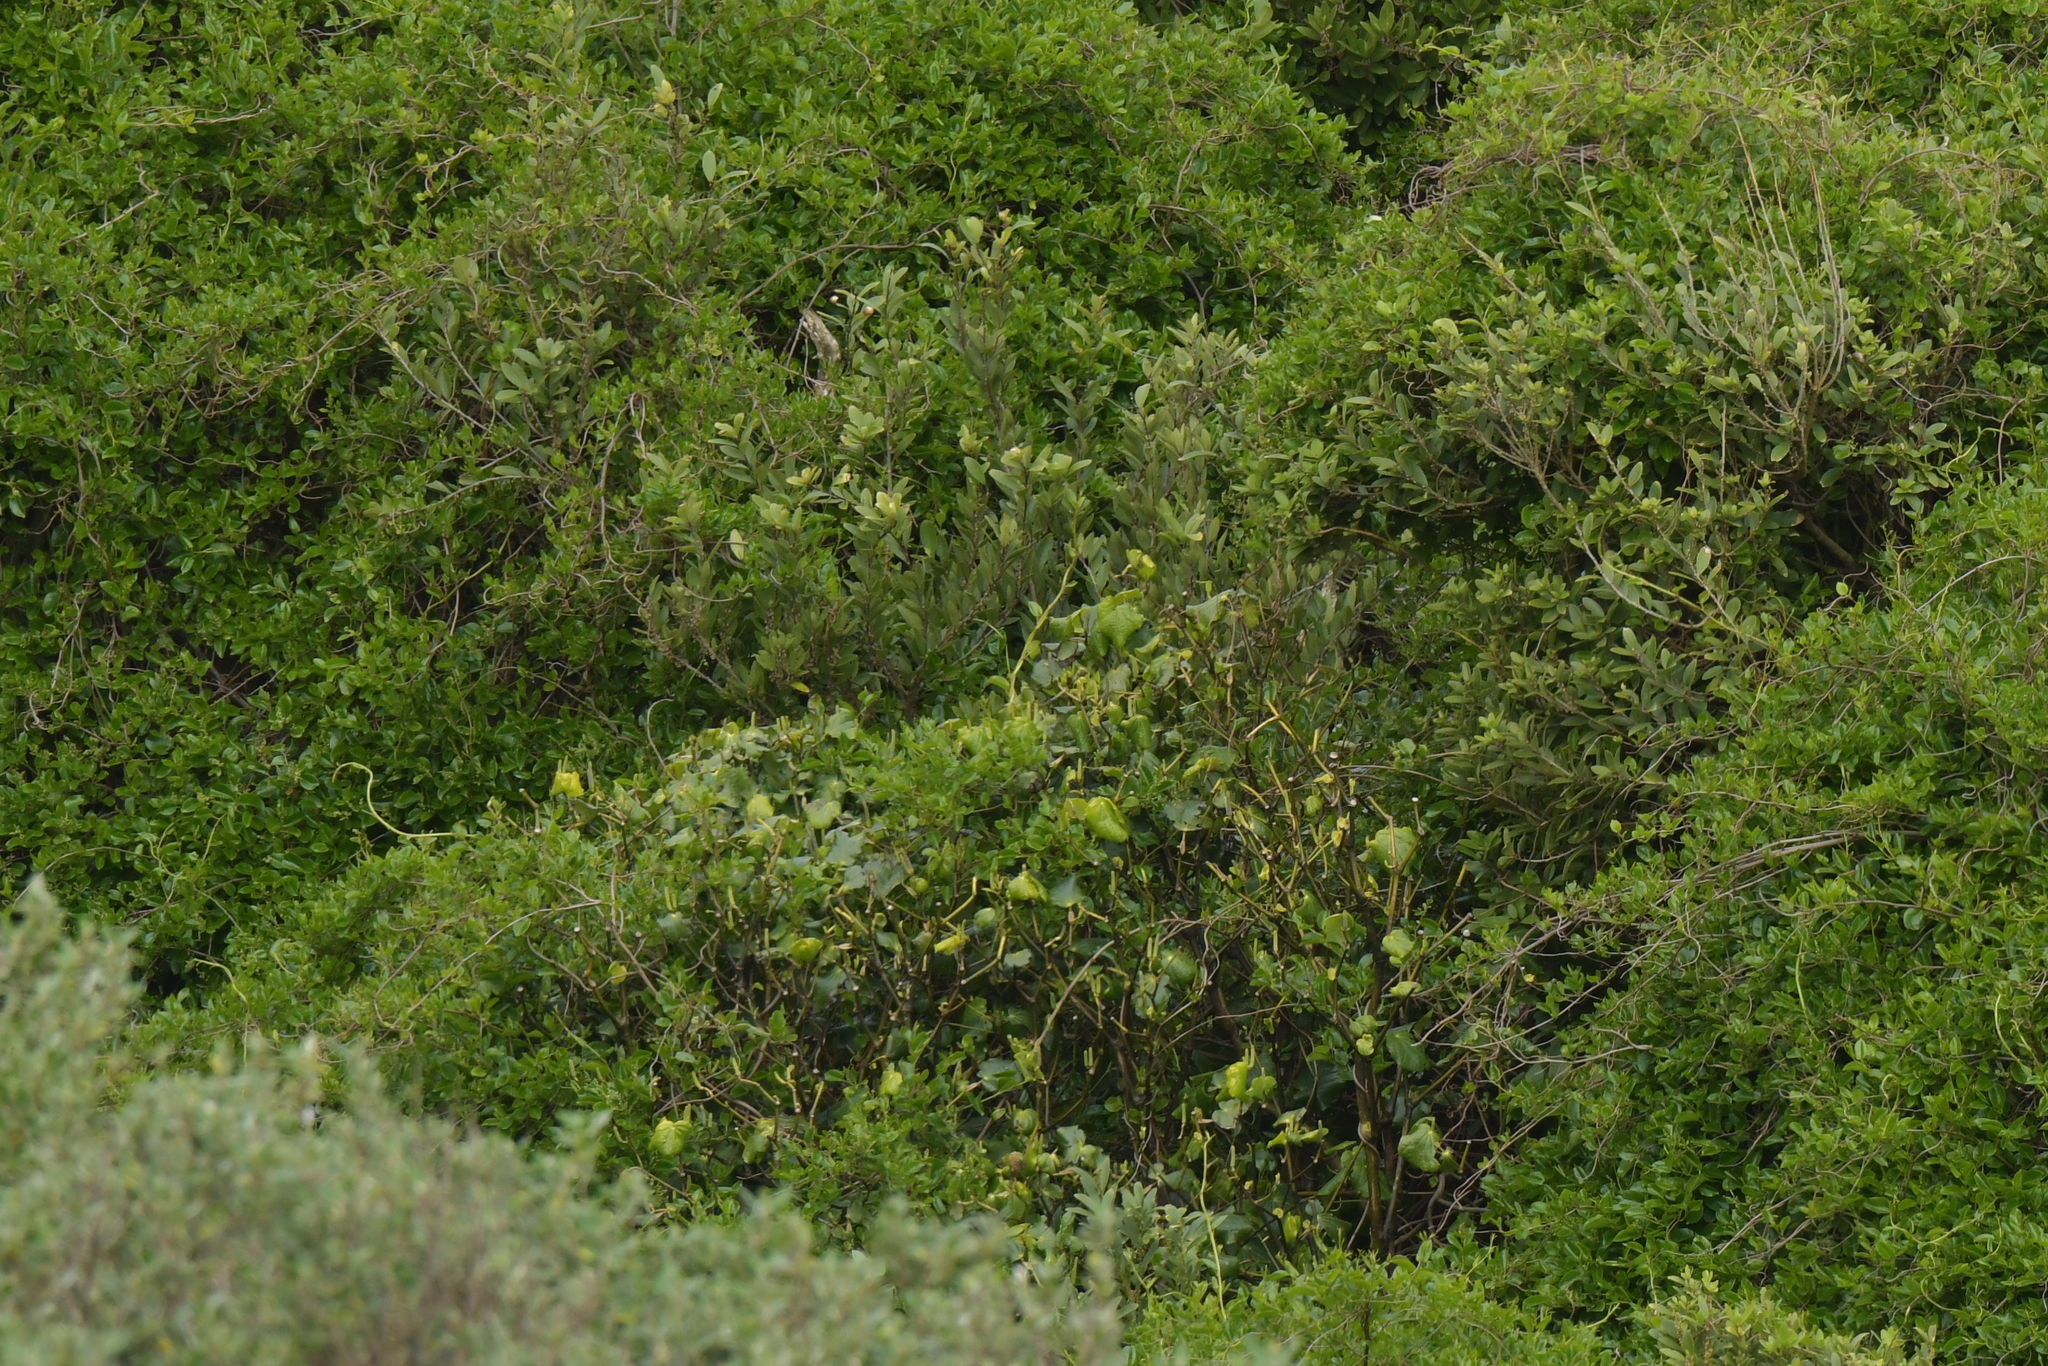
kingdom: Plantae
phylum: Tracheophyta
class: Magnoliopsida
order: Piperales
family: Piperaceae
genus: Macropiper
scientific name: Macropiper excelsum
